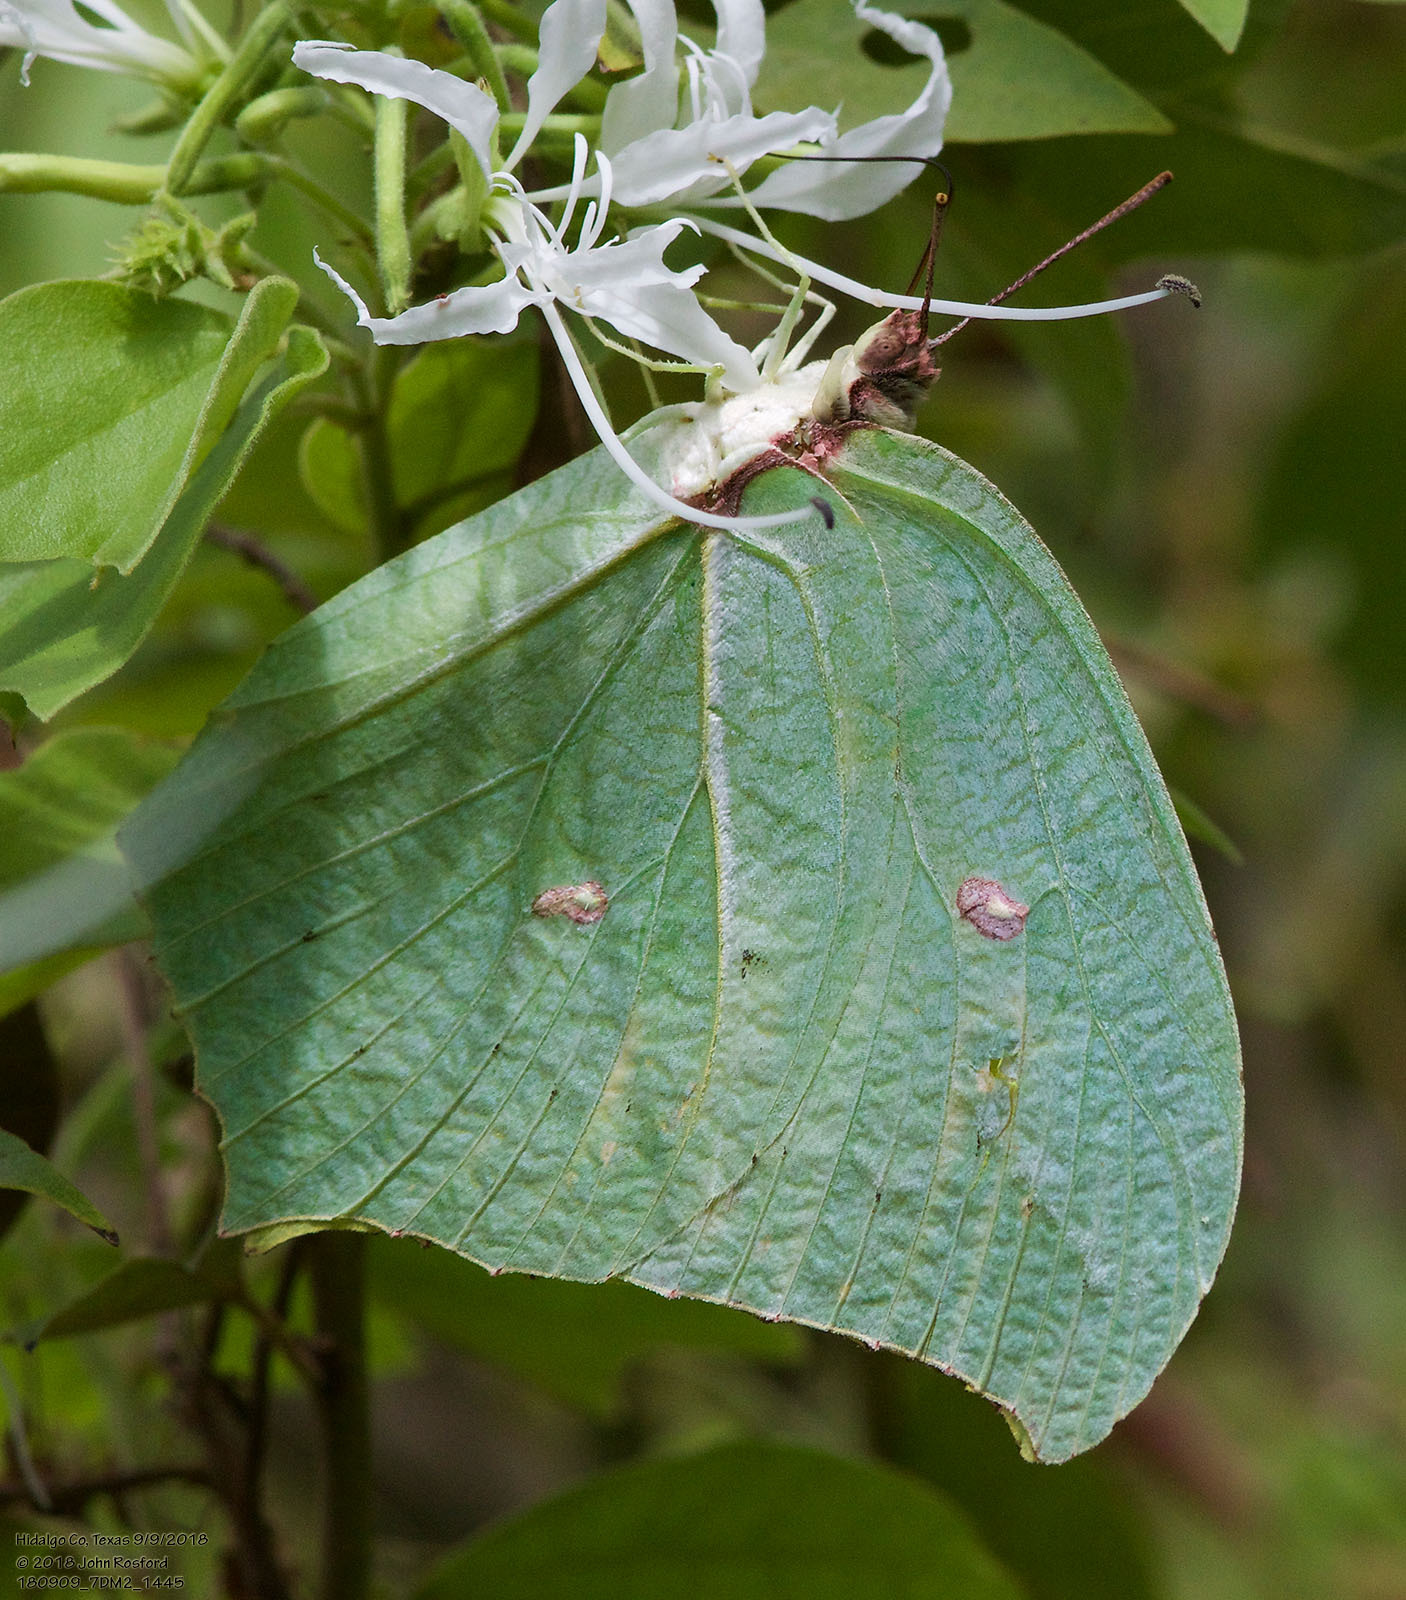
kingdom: Animalia
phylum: Arthropoda
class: Insecta
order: Lepidoptera
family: Pieridae
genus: Anteos
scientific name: Anteos maerula
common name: Angled sulphur
